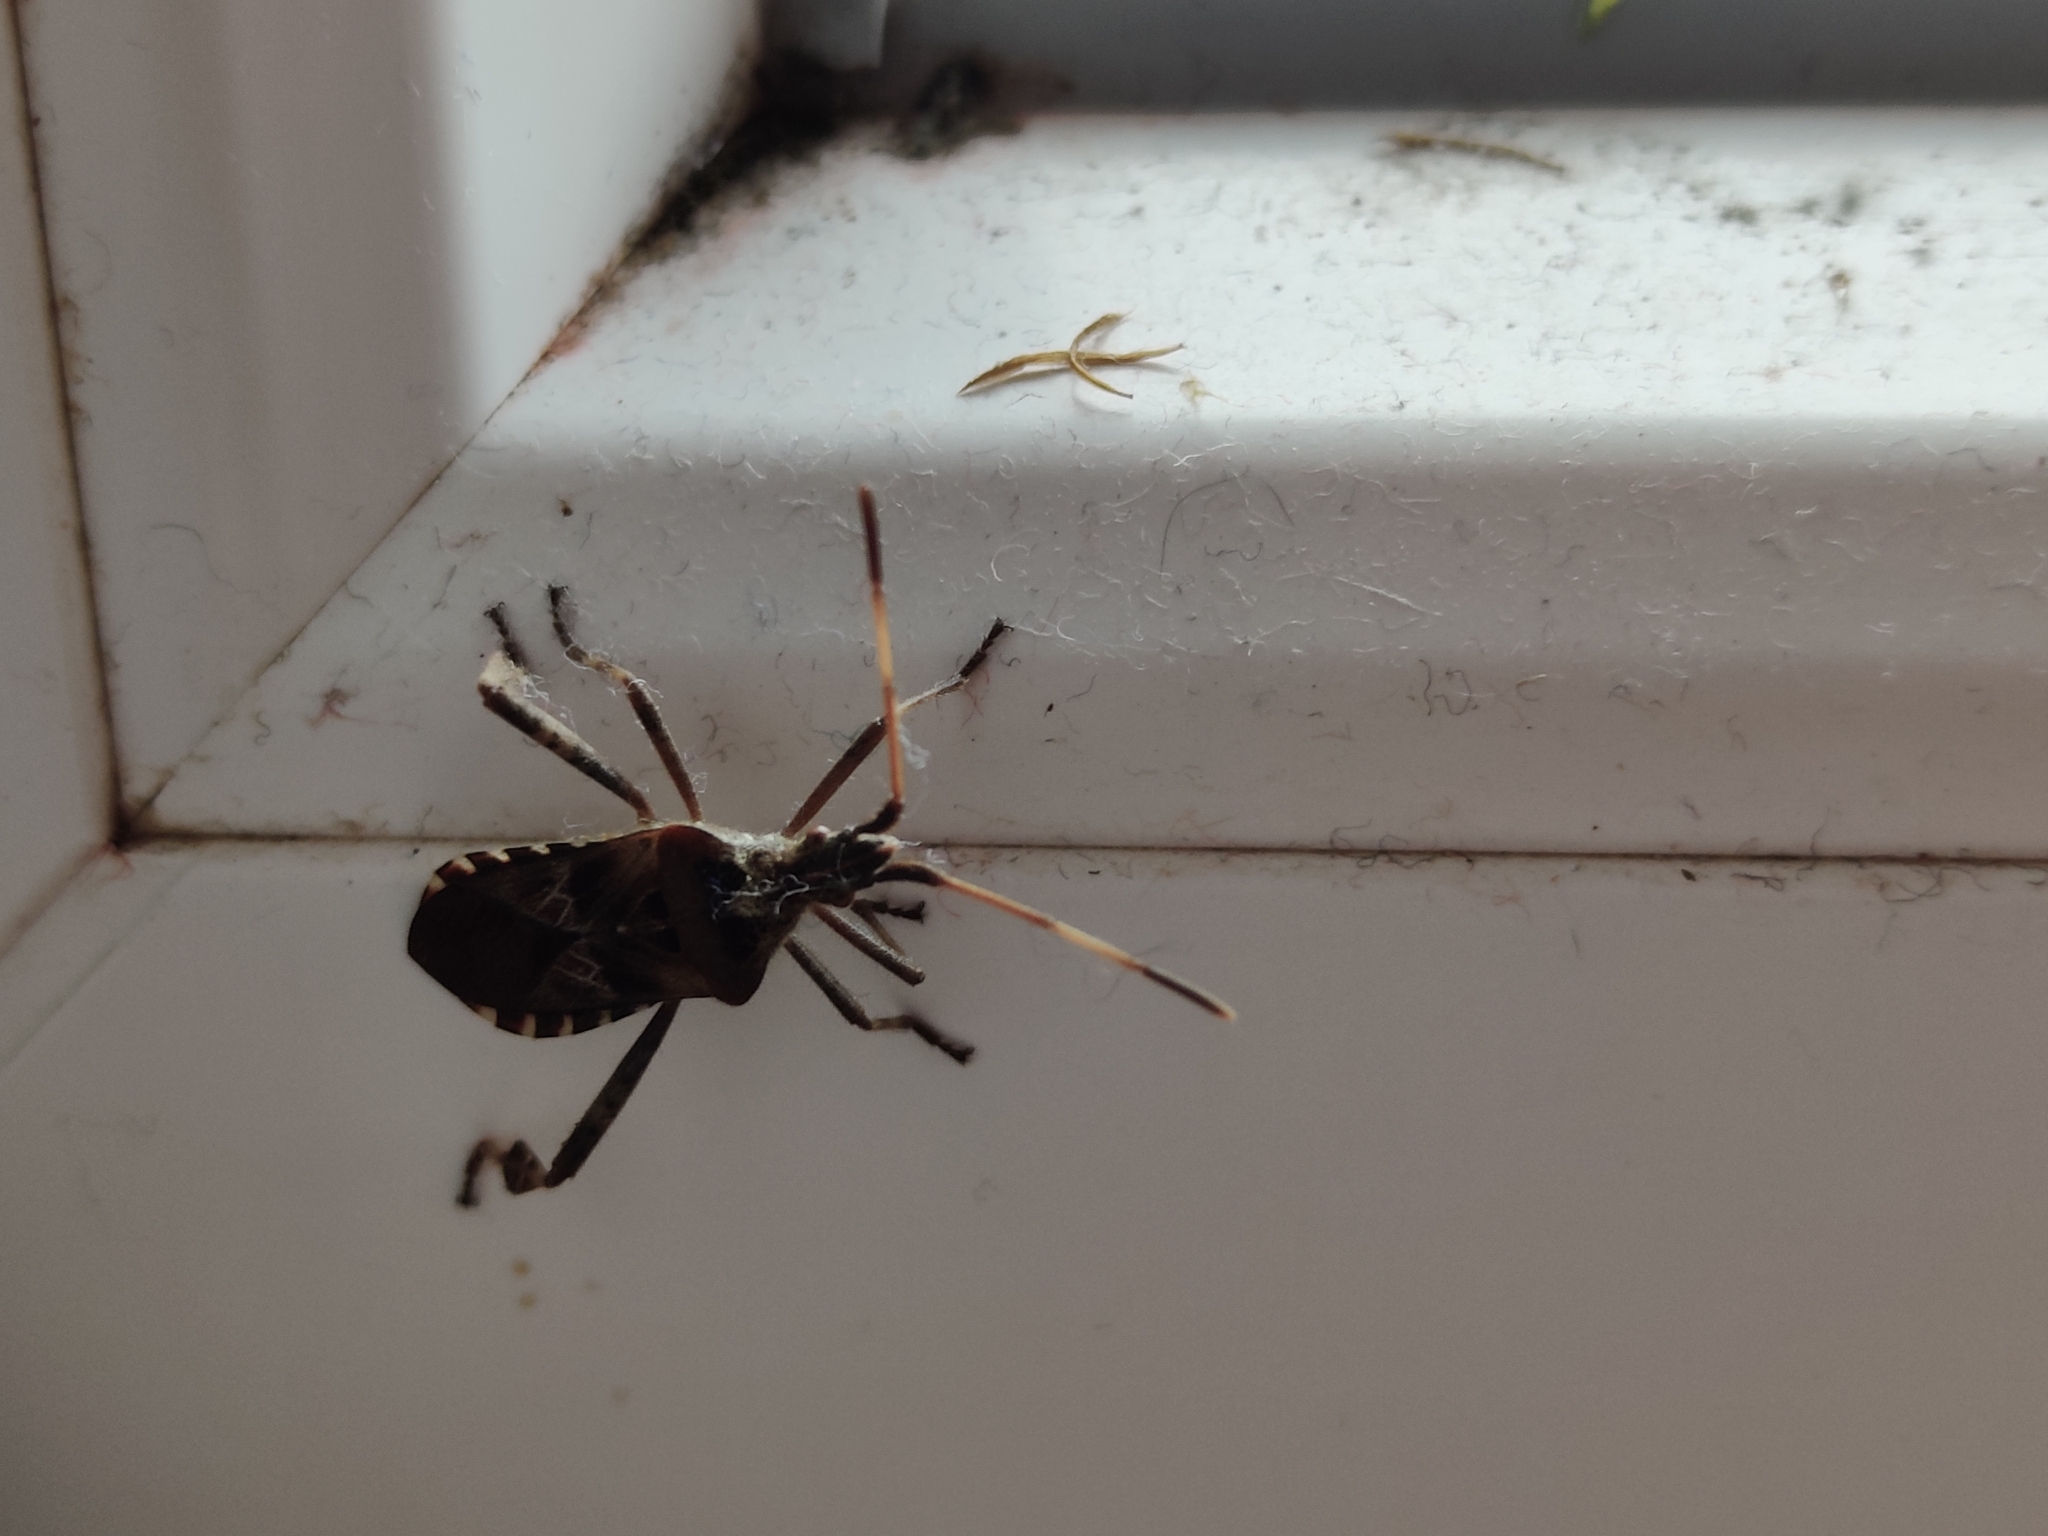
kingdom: Animalia
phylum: Arthropoda
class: Insecta
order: Hemiptera
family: Coreidae
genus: Leptoglossus
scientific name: Leptoglossus occidentalis
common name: Western conifer-seed bug
